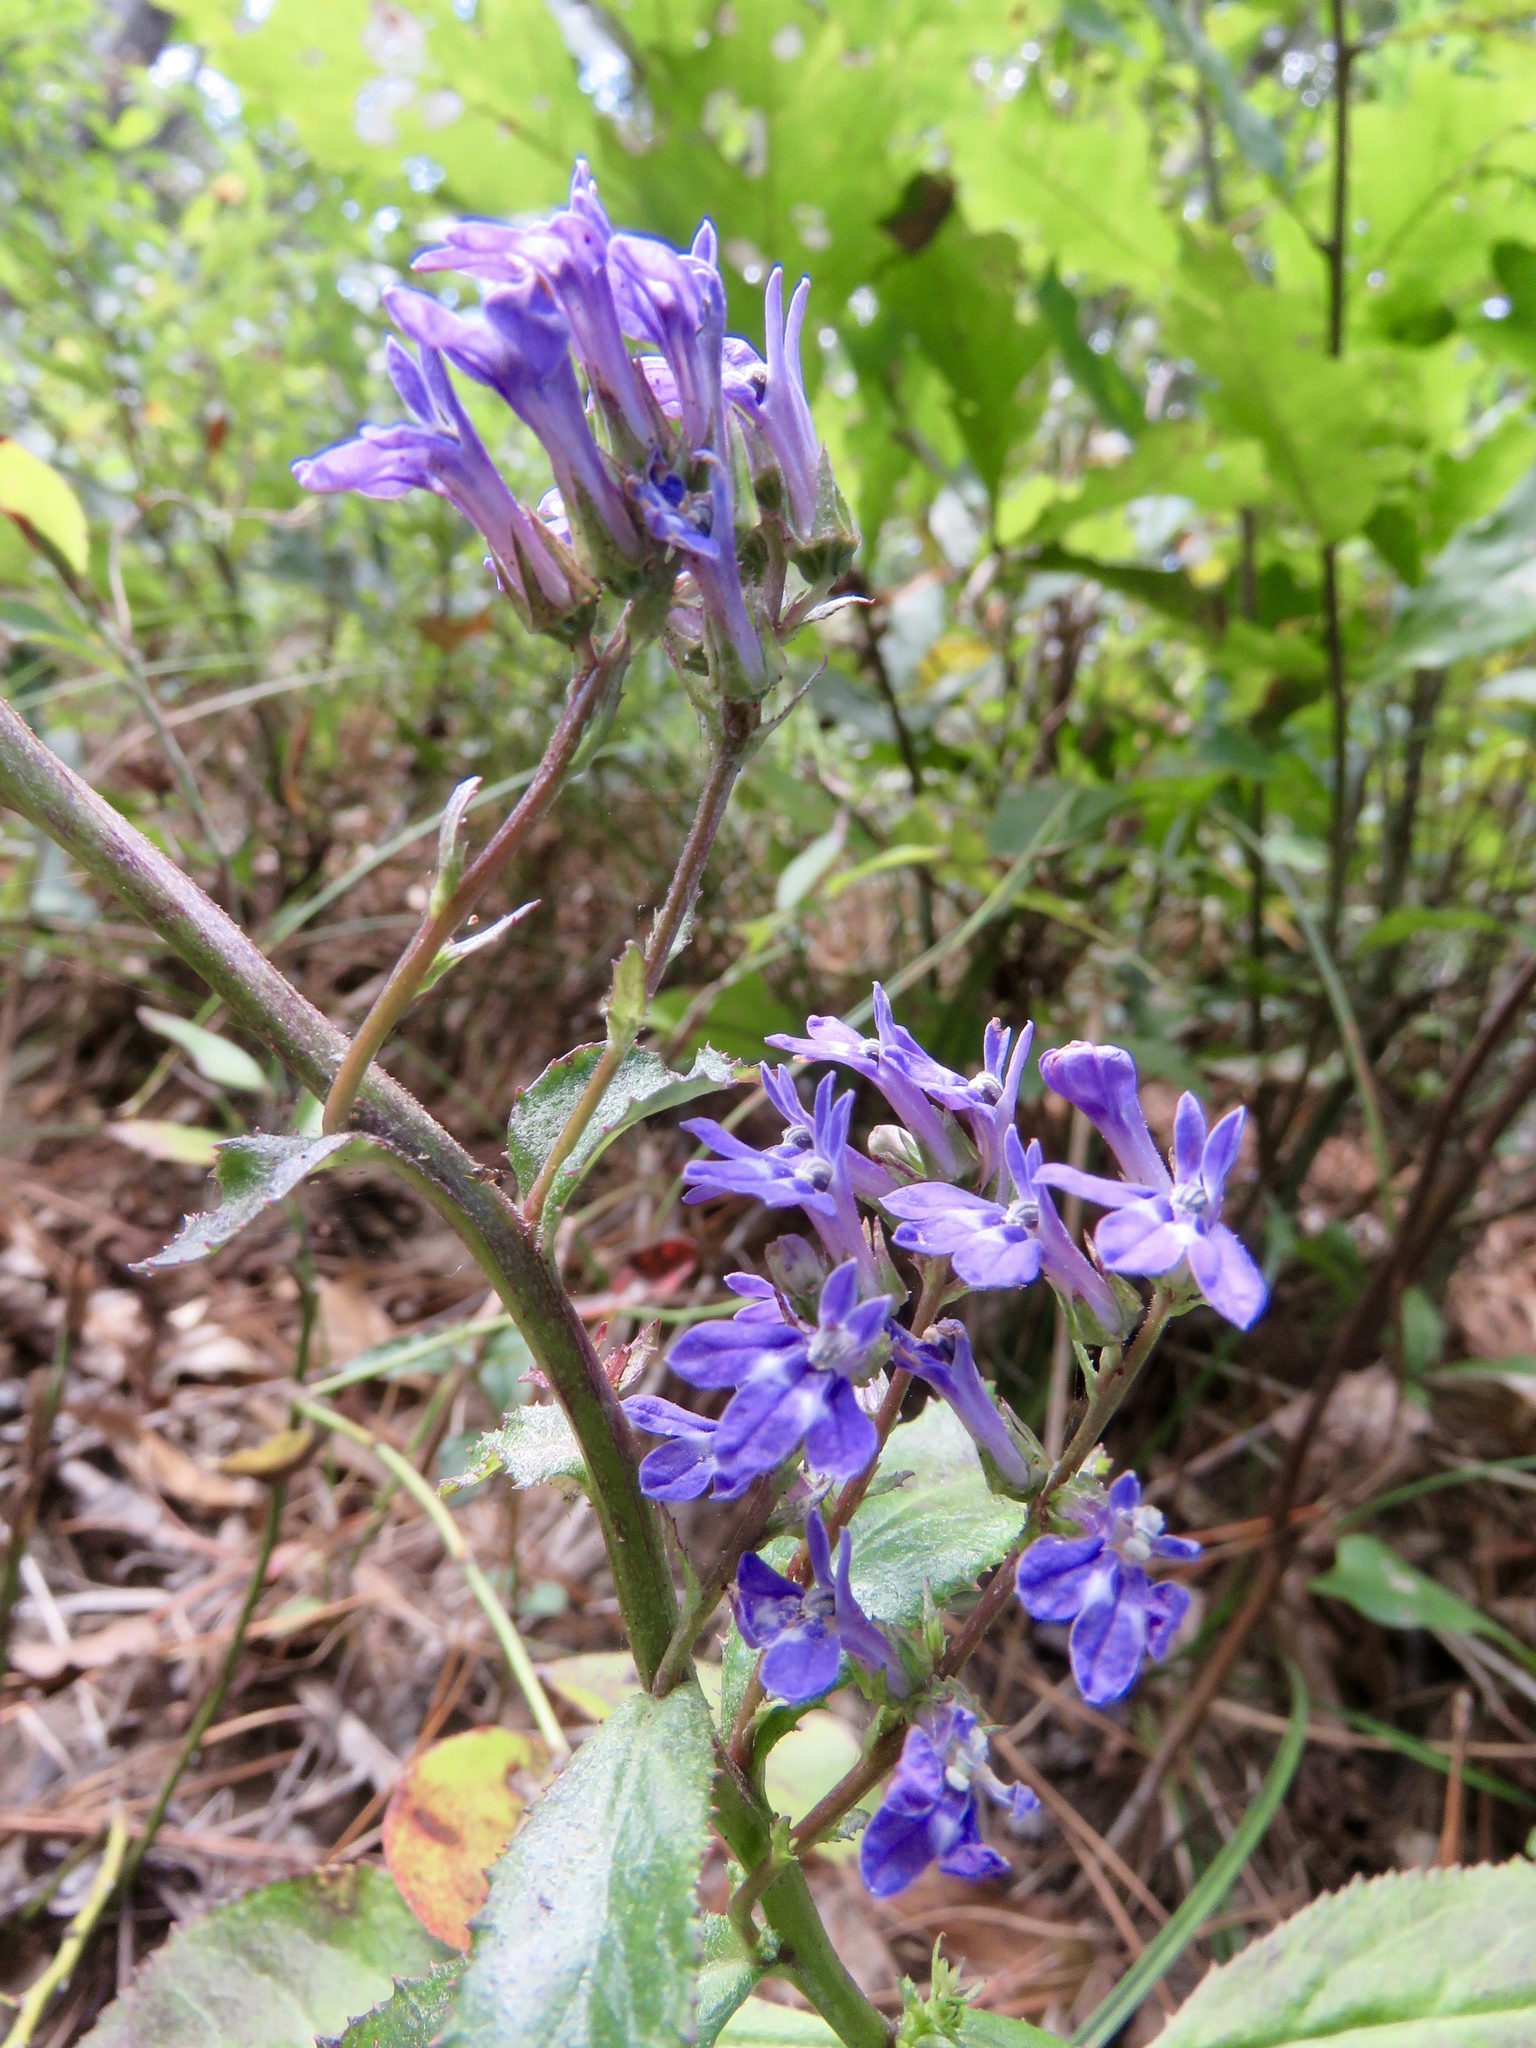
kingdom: Plantae
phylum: Tracheophyta
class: Magnoliopsida
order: Asterales
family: Campanulaceae
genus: Lobelia
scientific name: Lobelia reverchonii
